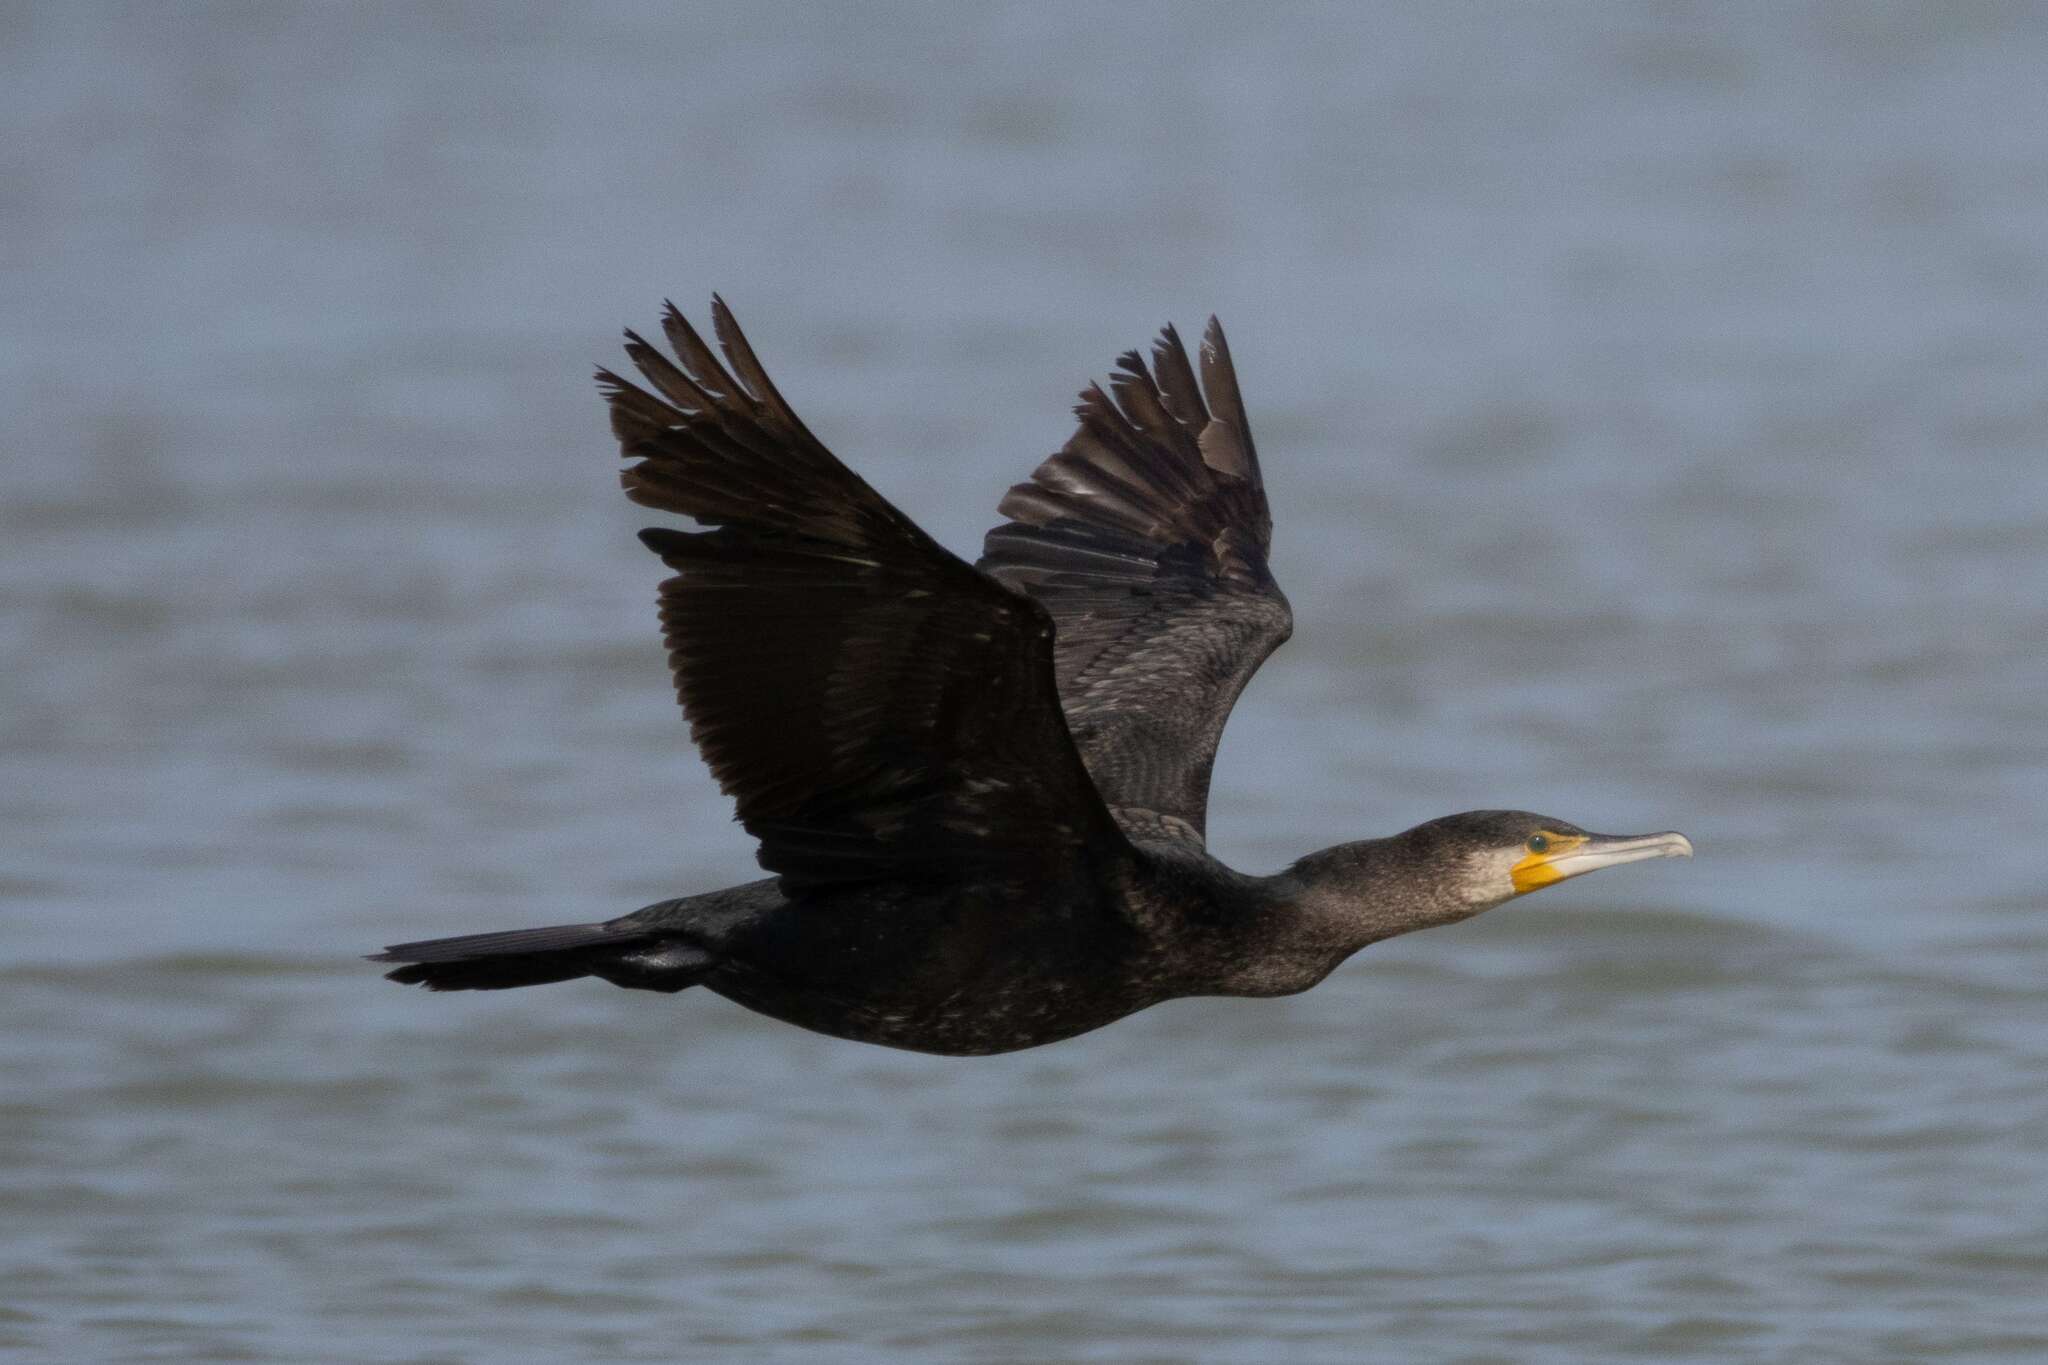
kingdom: Animalia
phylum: Chordata
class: Aves
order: Suliformes
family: Phalacrocoracidae
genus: Phalacrocorax
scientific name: Phalacrocorax carbo
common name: Great cormorant
